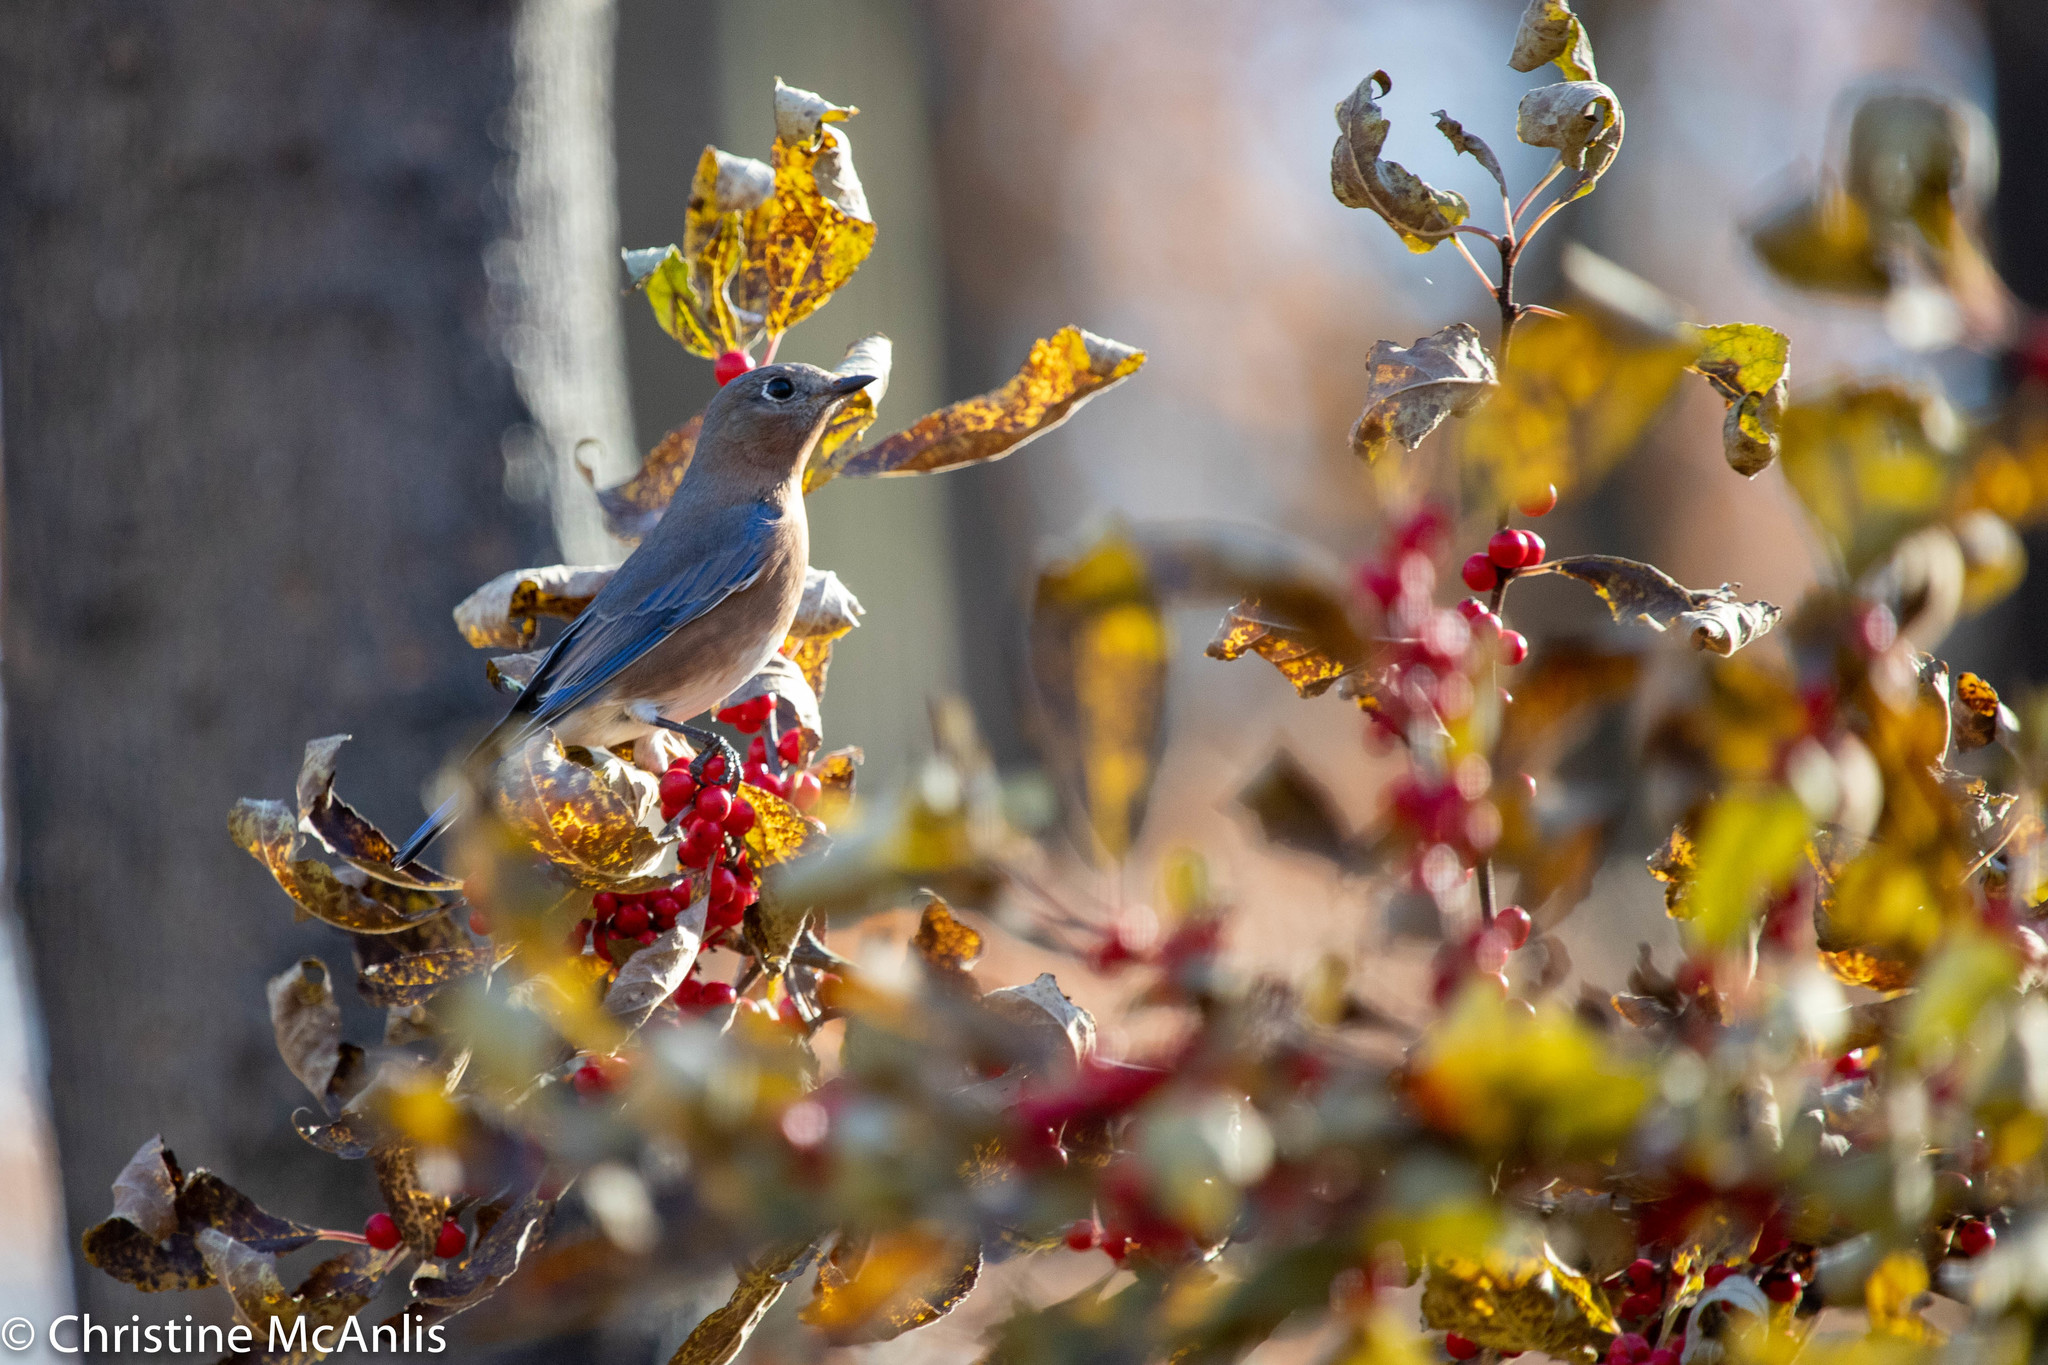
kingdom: Animalia
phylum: Chordata
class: Aves
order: Passeriformes
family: Turdidae
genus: Sialia
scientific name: Sialia sialis
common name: Eastern bluebird
